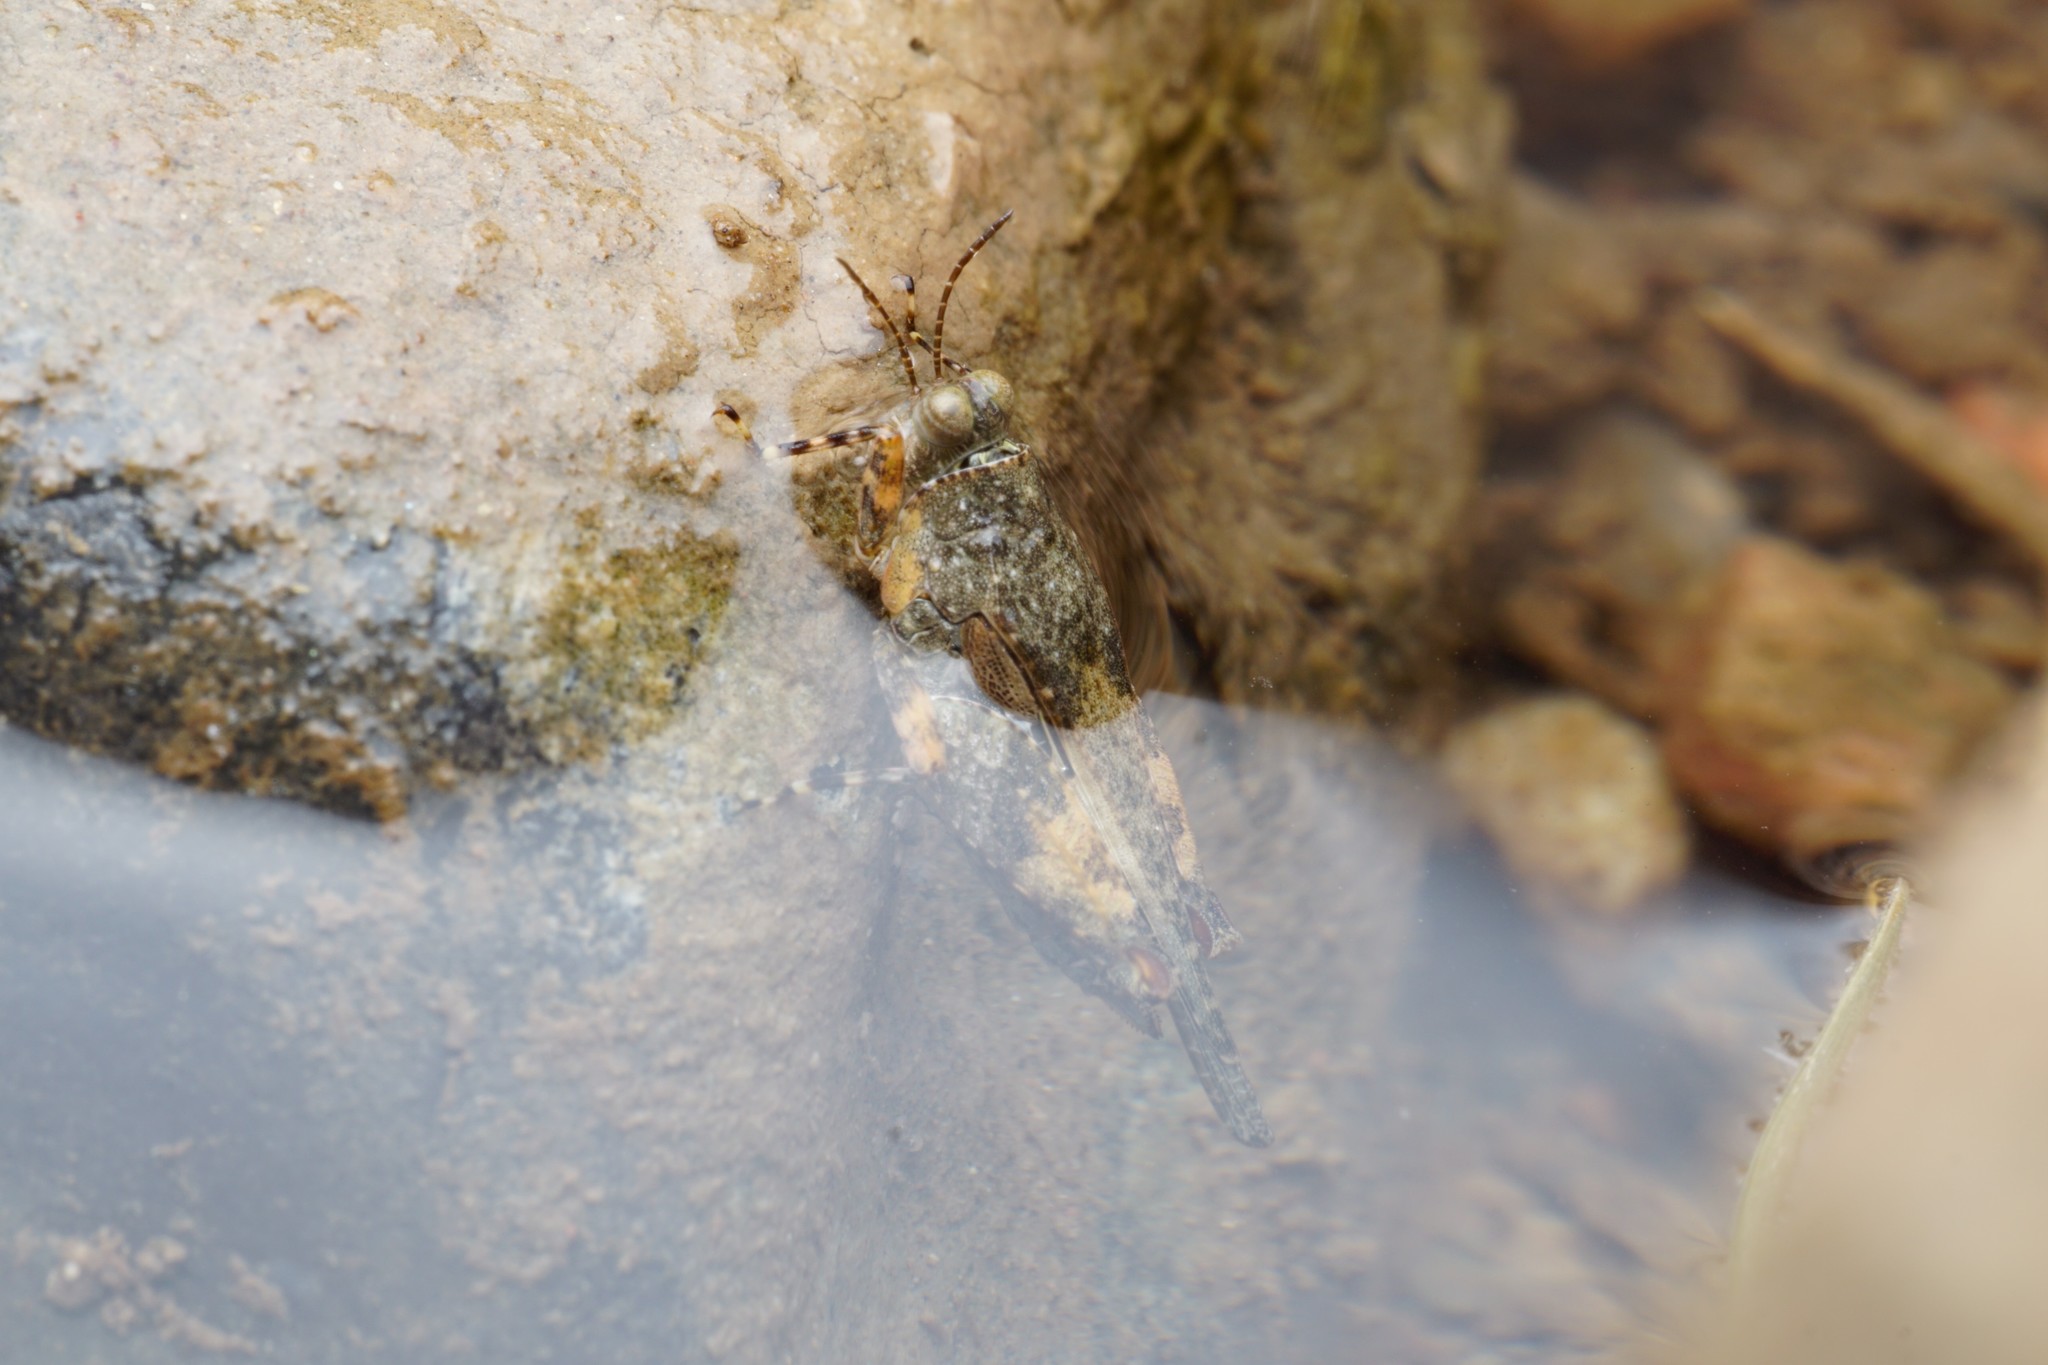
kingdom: Animalia
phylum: Arthropoda
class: Insecta
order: Orthoptera
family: Tetrigidae
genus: Paratettix
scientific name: Paratettix aztecus
